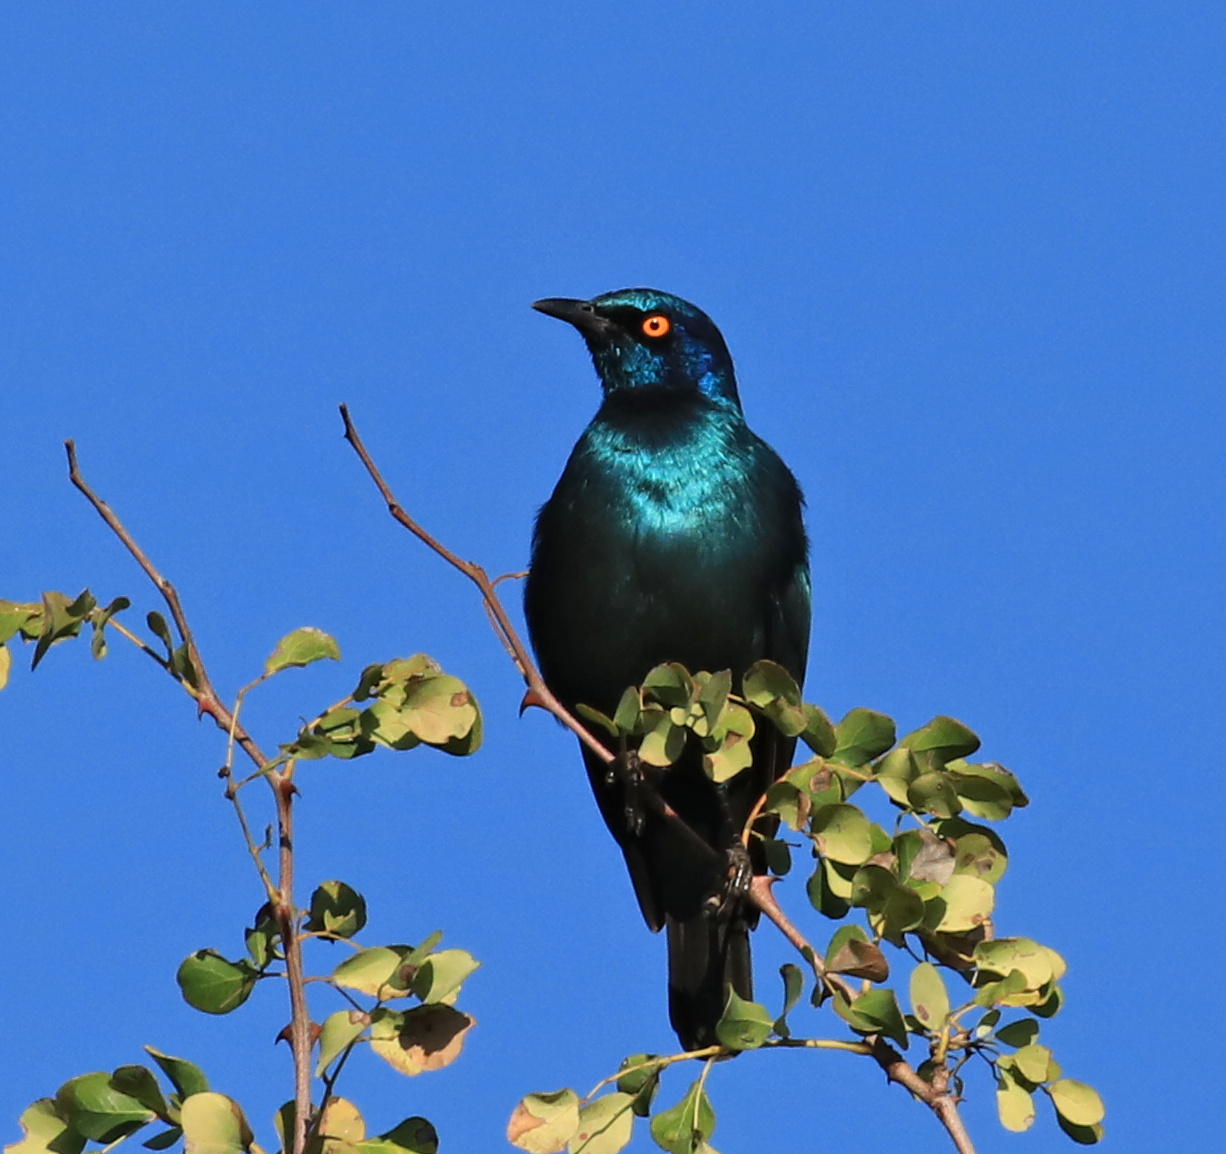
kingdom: Animalia
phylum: Chordata
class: Aves
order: Passeriformes
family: Sturnidae
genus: Lamprotornis
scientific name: Lamprotornis nitens
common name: Cape starling
